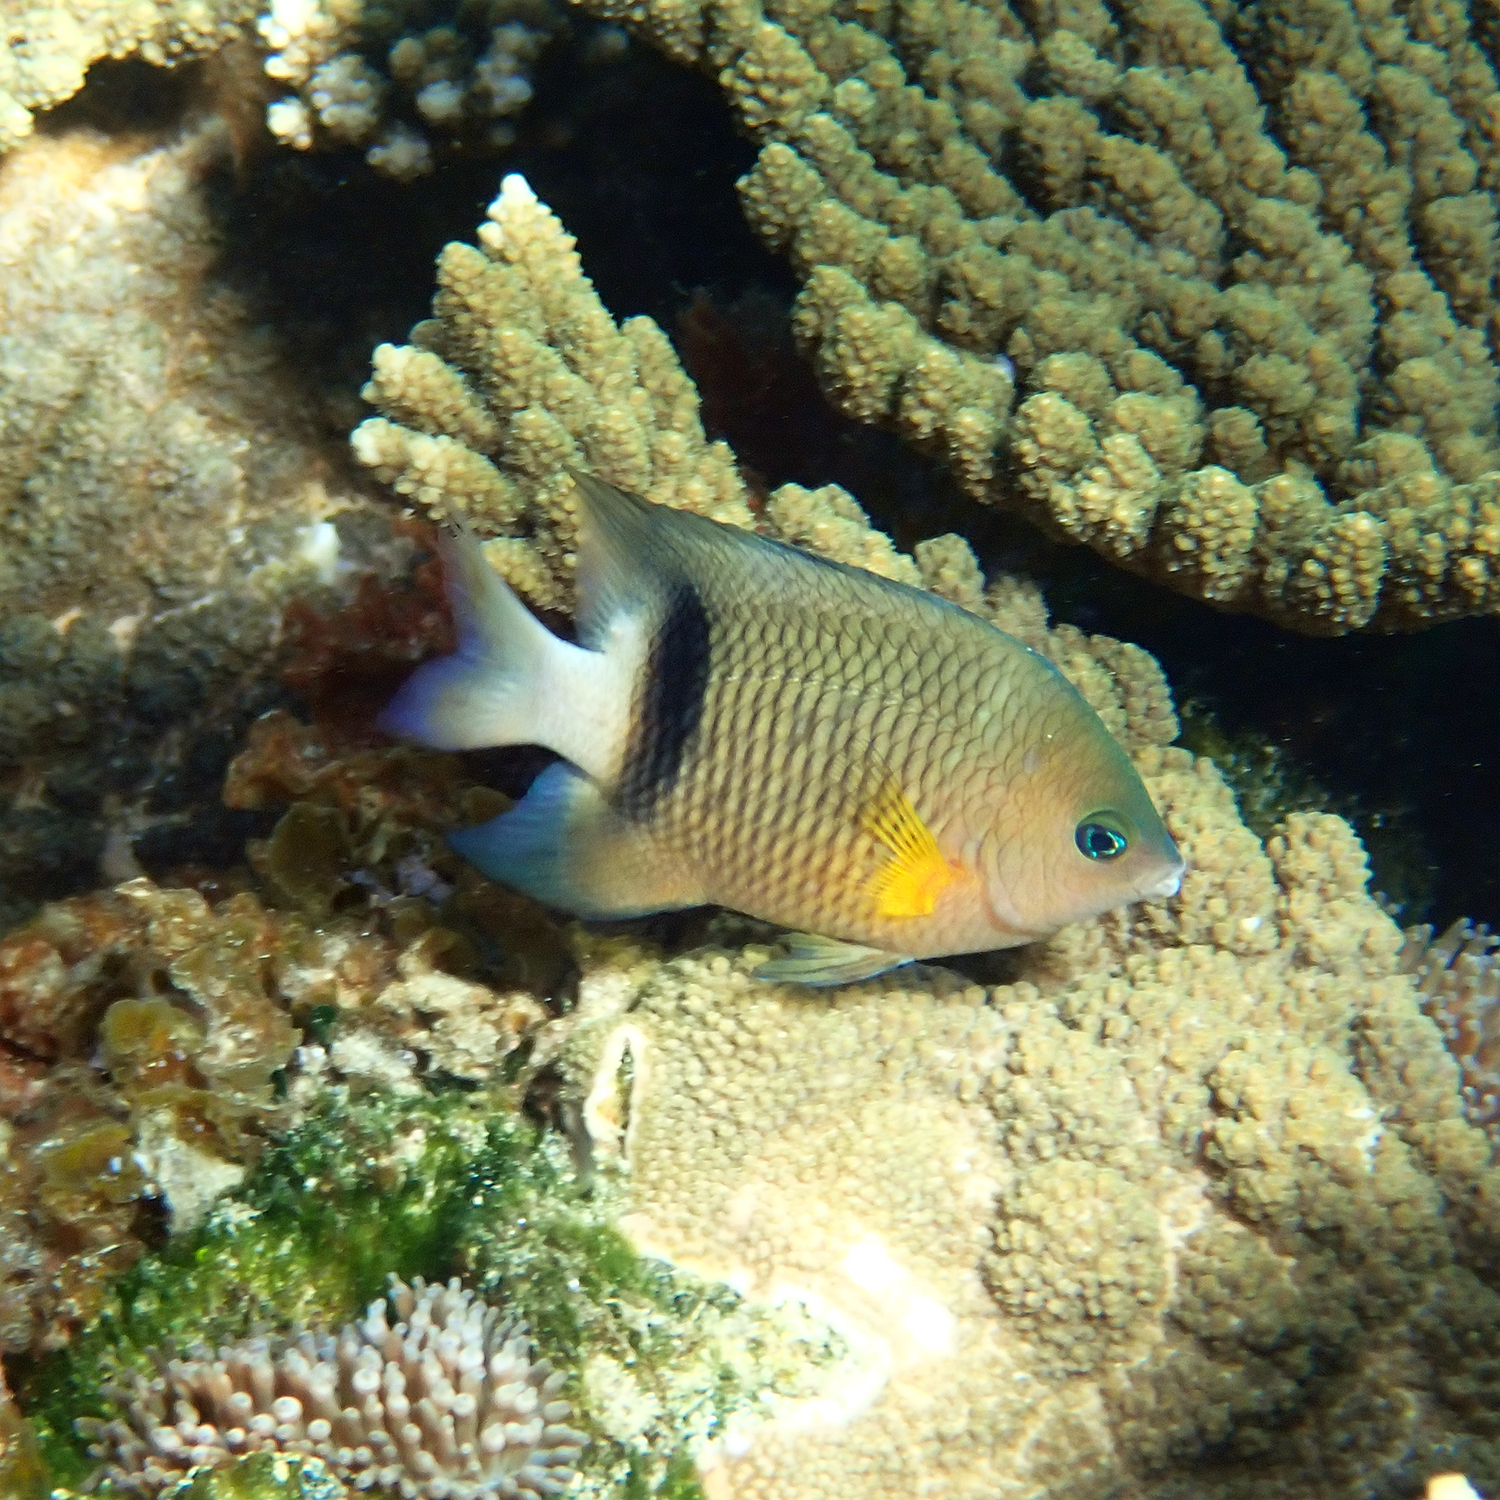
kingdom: Animalia
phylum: Chordata
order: Perciformes
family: Pomacentridae
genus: Plectroglyphidodon
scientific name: Plectroglyphidodon dickii
